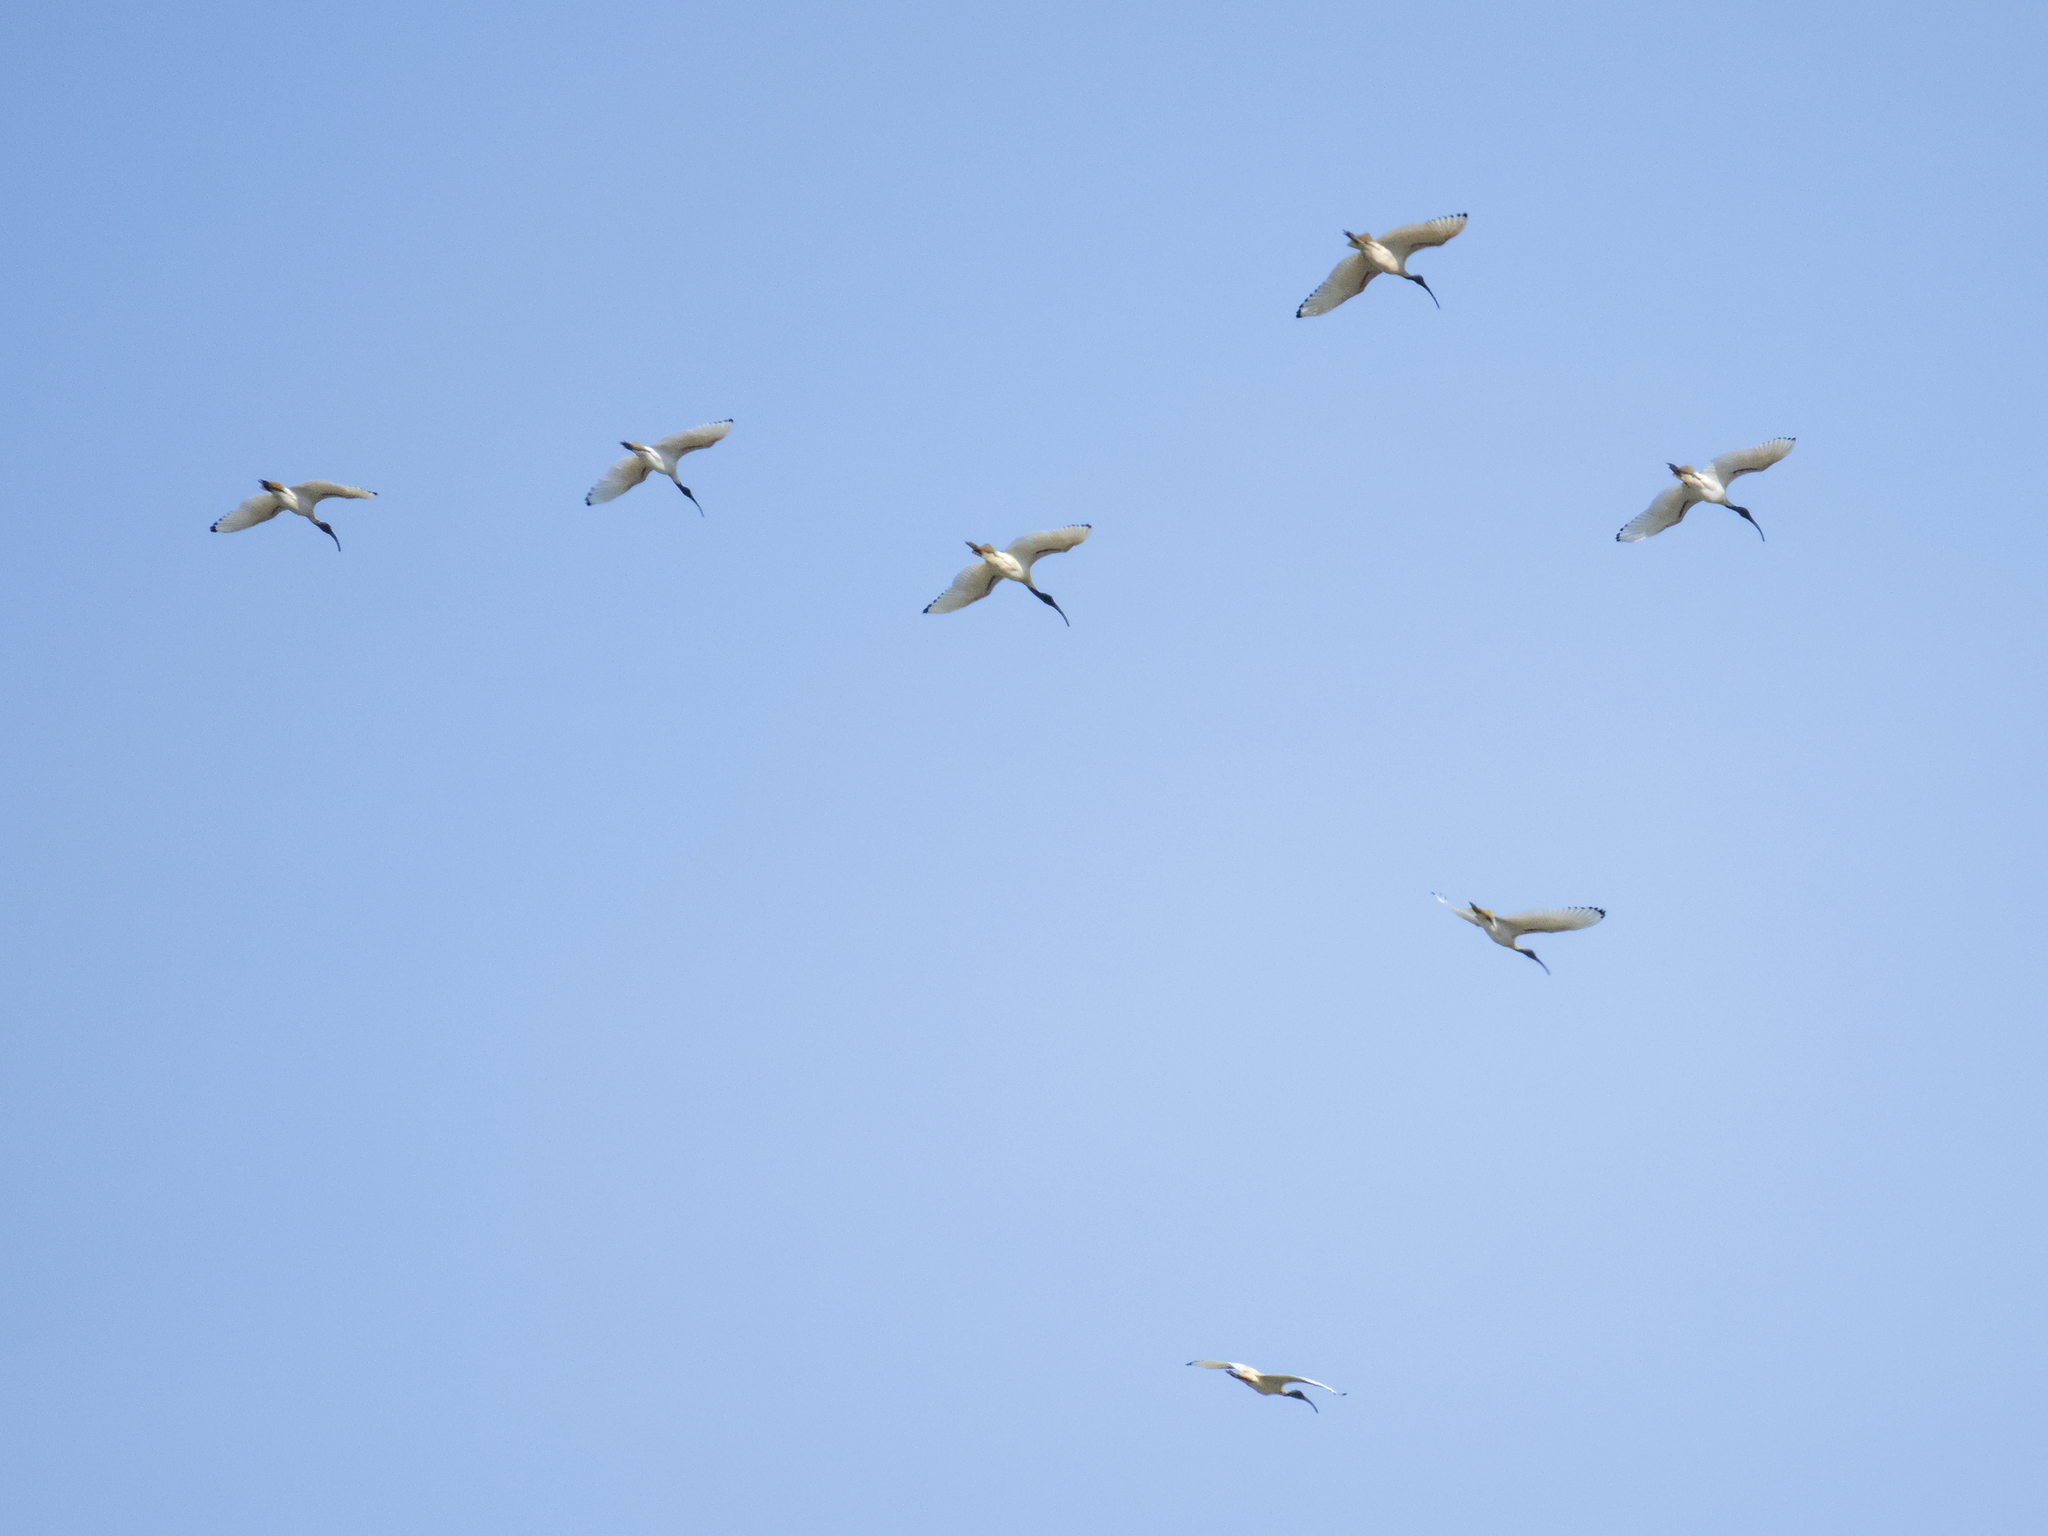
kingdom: Animalia
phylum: Chordata
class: Aves
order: Pelecaniformes
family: Threskiornithidae
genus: Threskiornis
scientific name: Threskiornis molucca
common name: Australian white ibis
